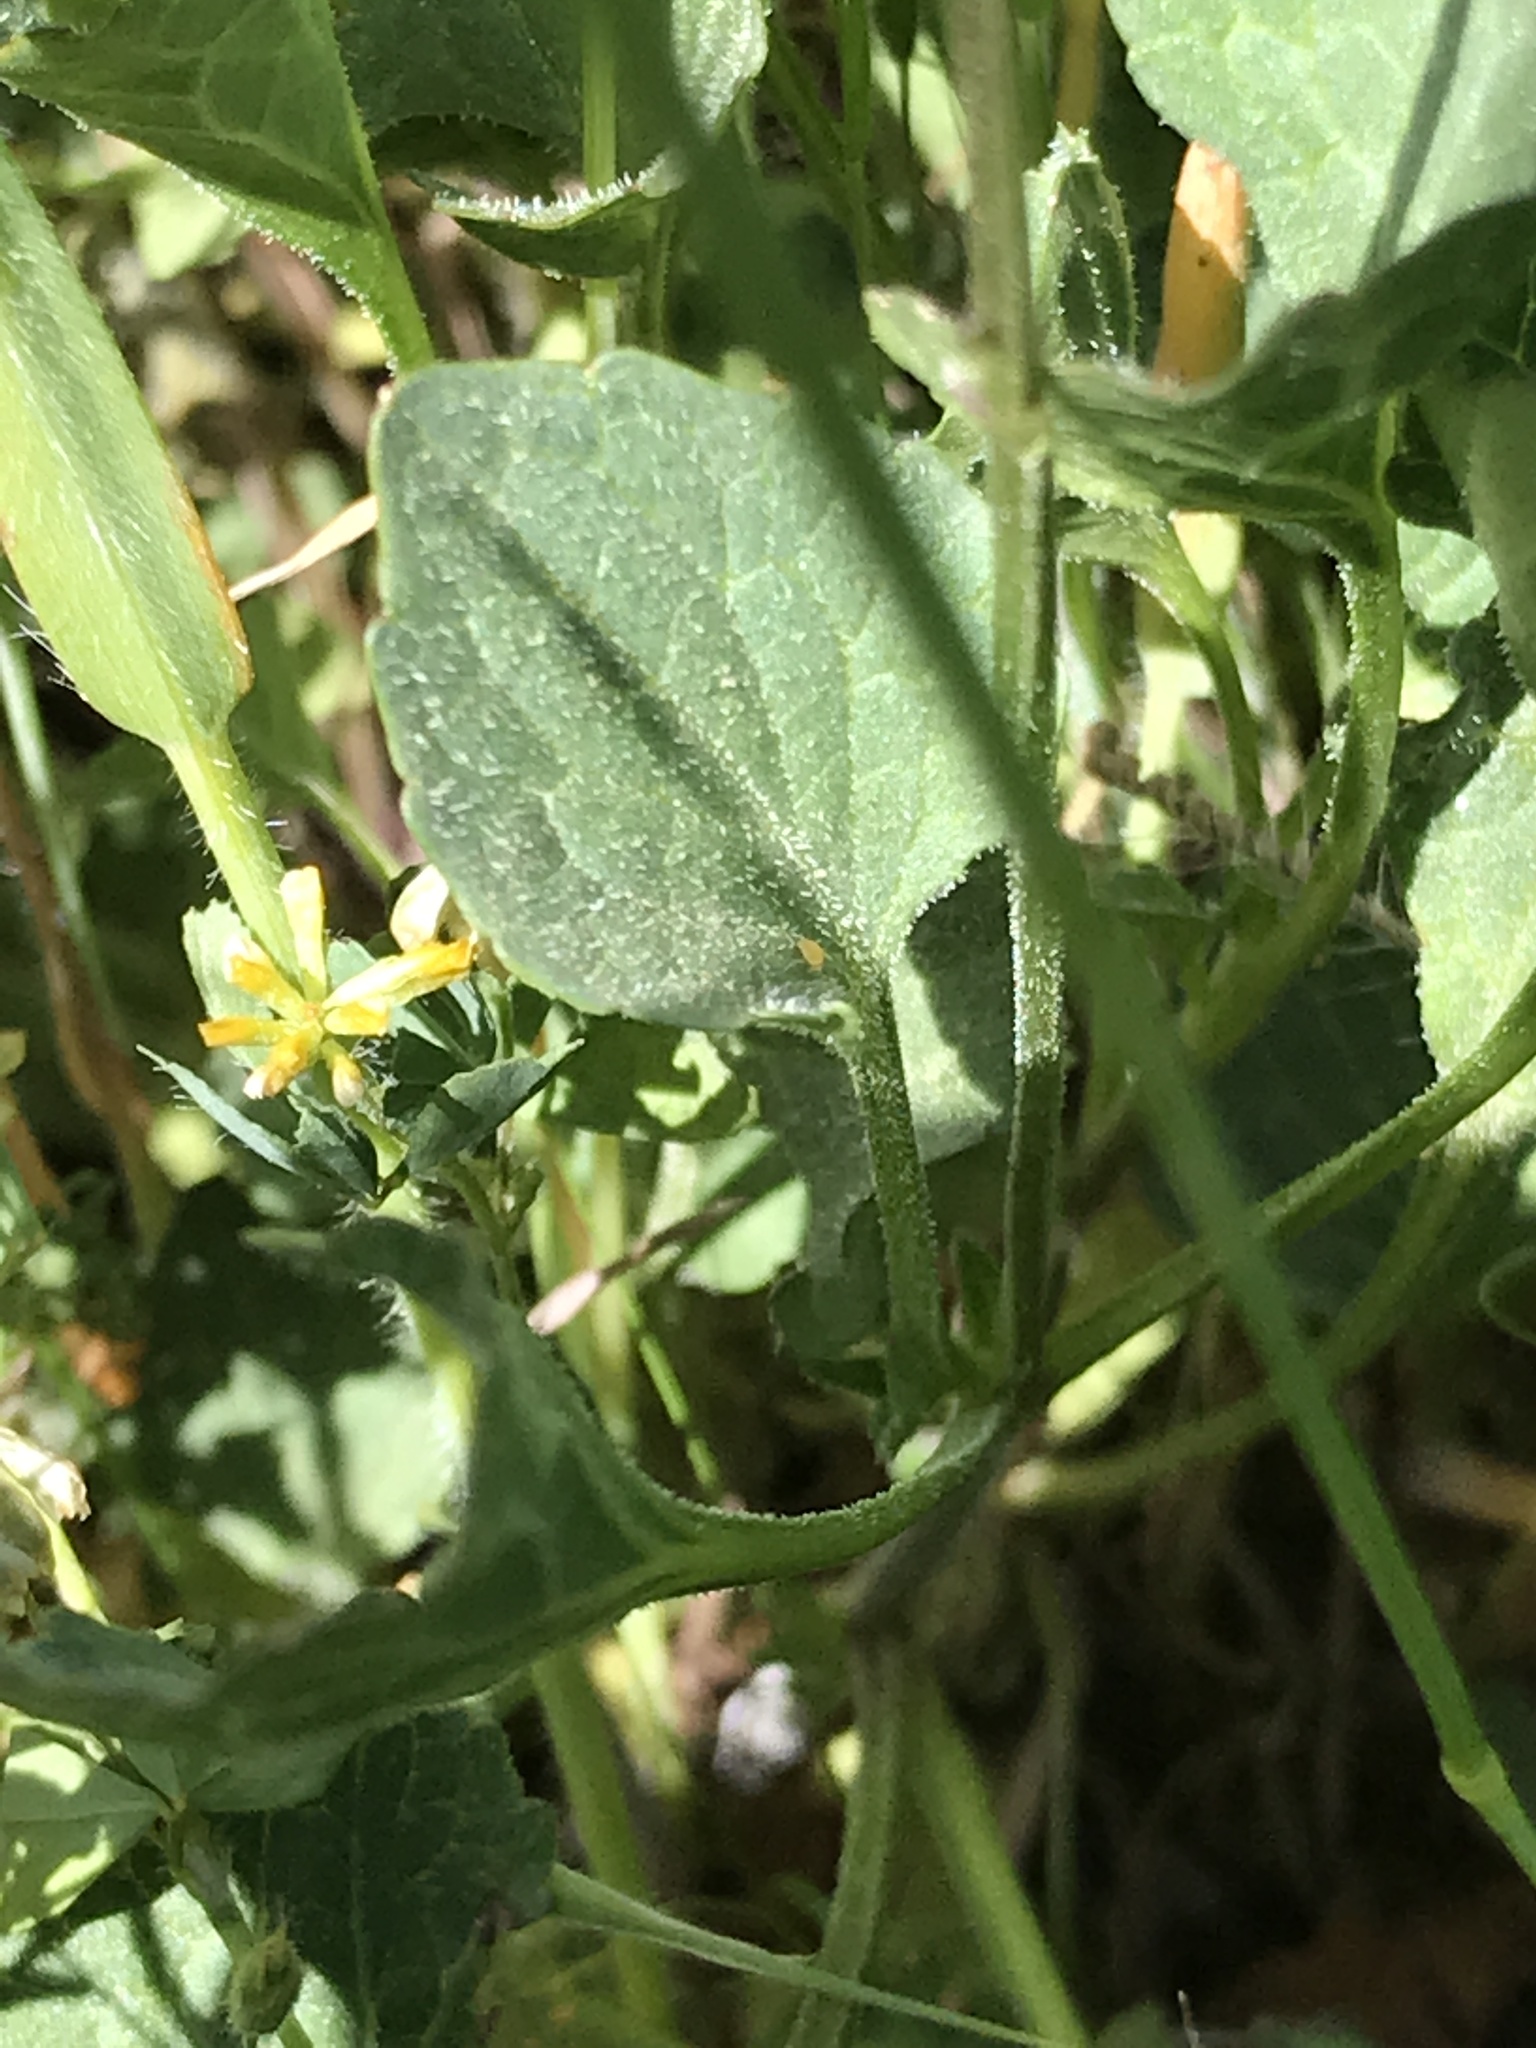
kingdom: Plantae
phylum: Tracheophyta
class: Magnoliopsida
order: Malpighiales
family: Violaceae
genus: Viola
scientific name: Viola pedunculata
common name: California golden violet
